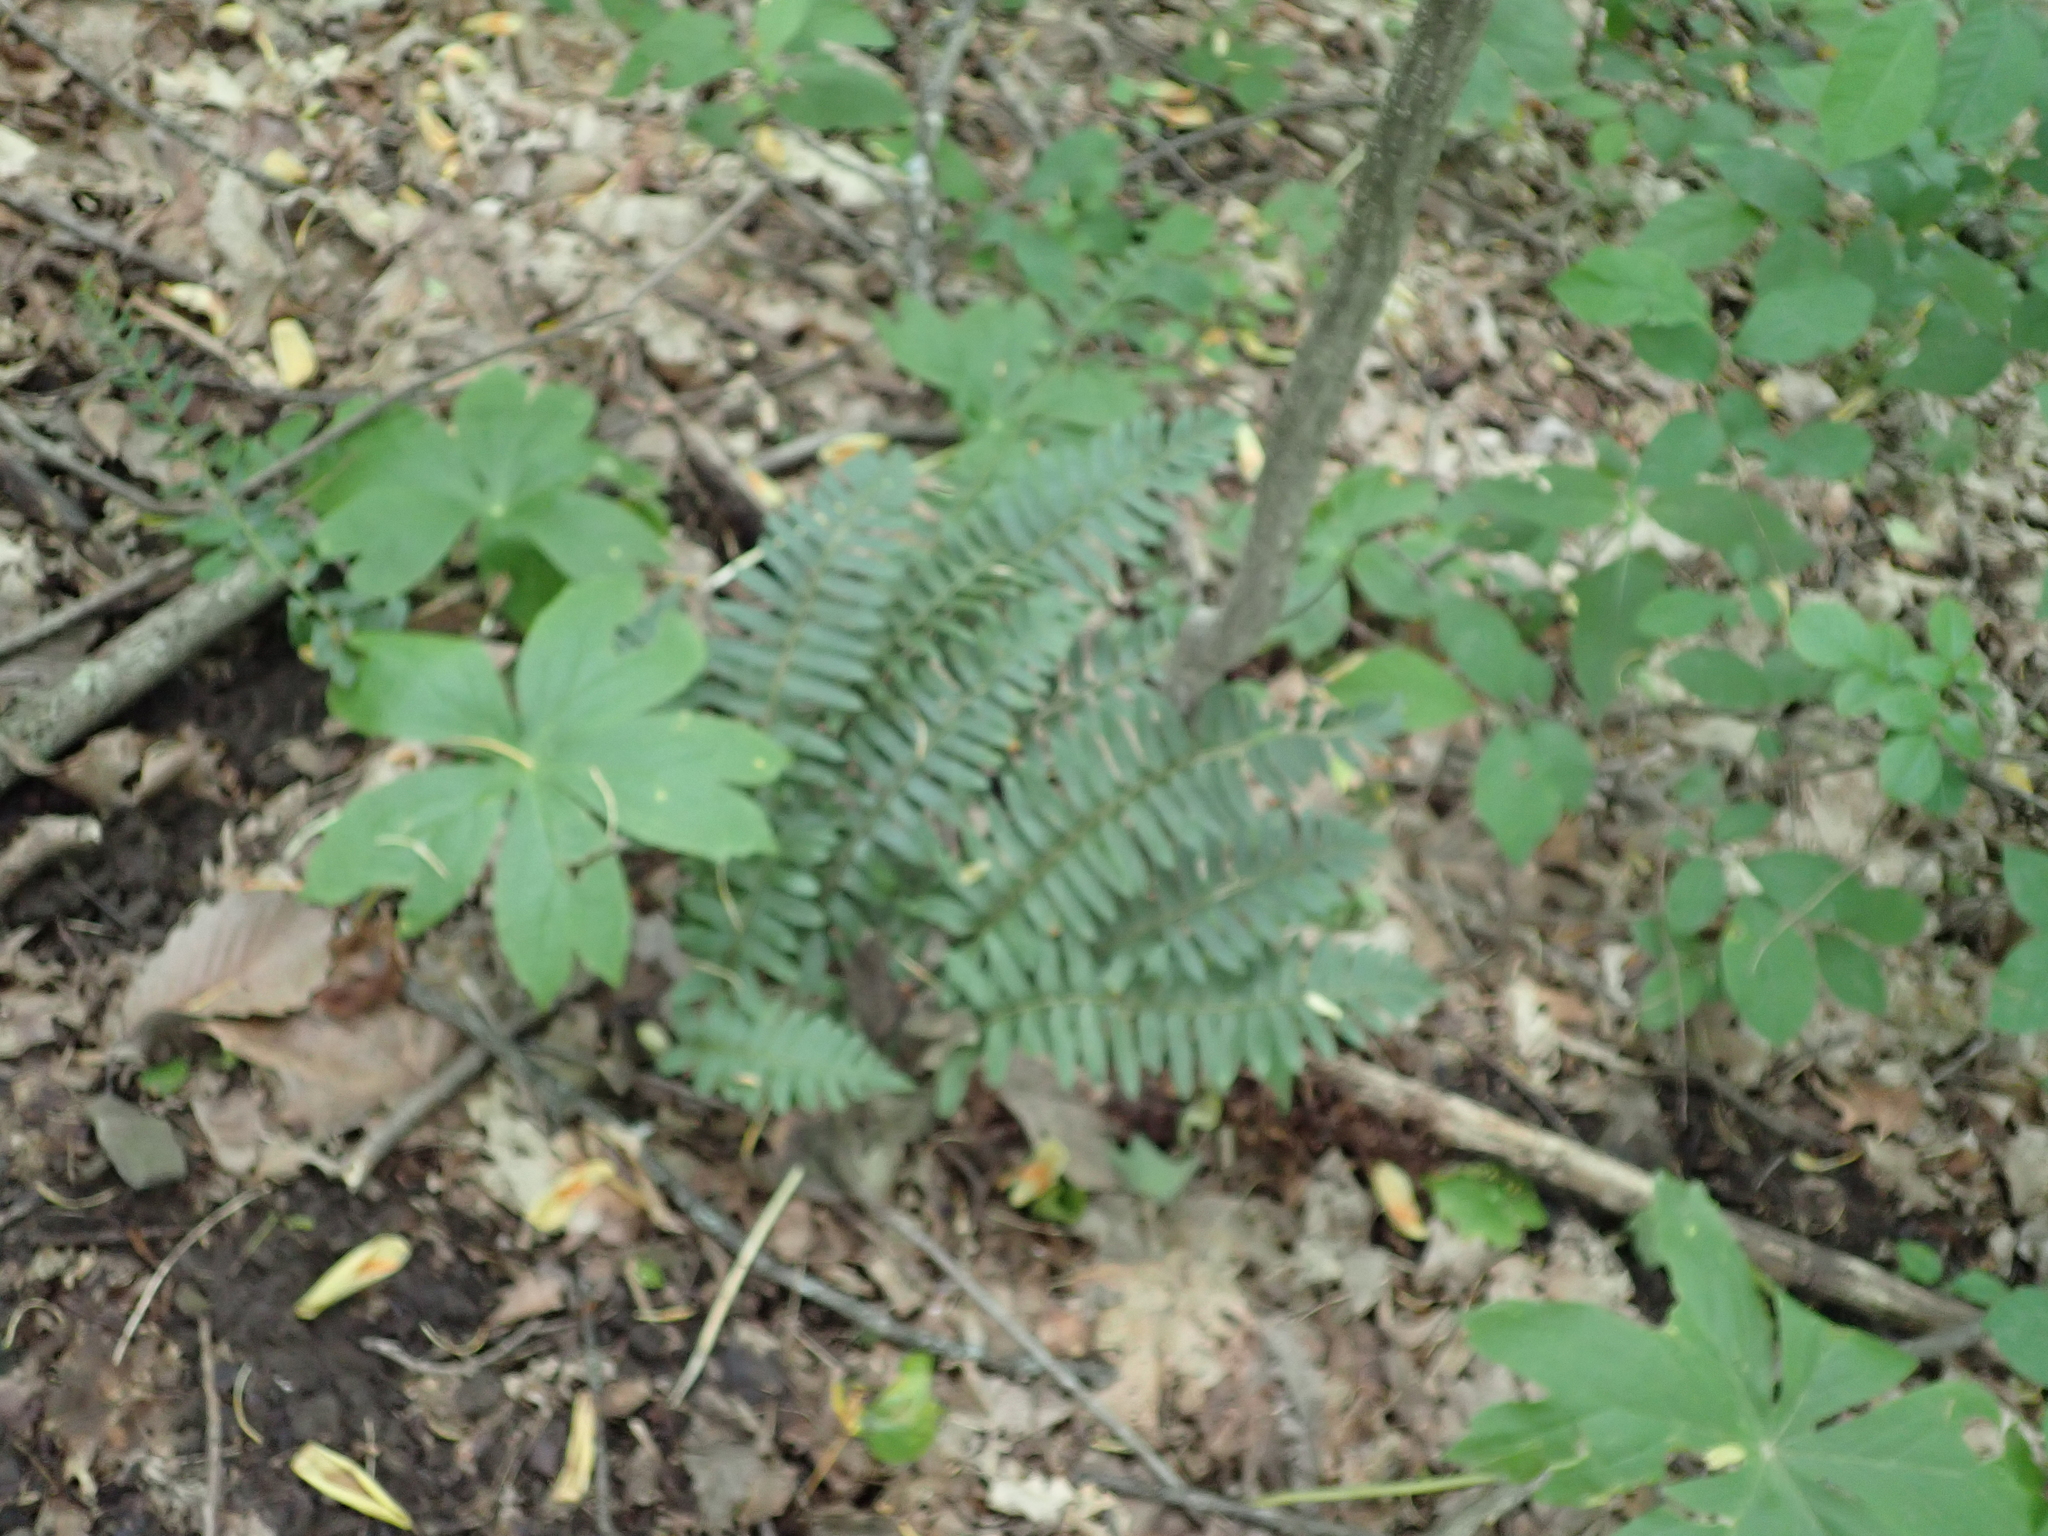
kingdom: Plantae
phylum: Tracheophyta
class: Polypodiopsida
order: Polypodiales
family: Dryopteridaceae
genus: Polystichum
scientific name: Polystichum acrostichoides
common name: Christmas fern
